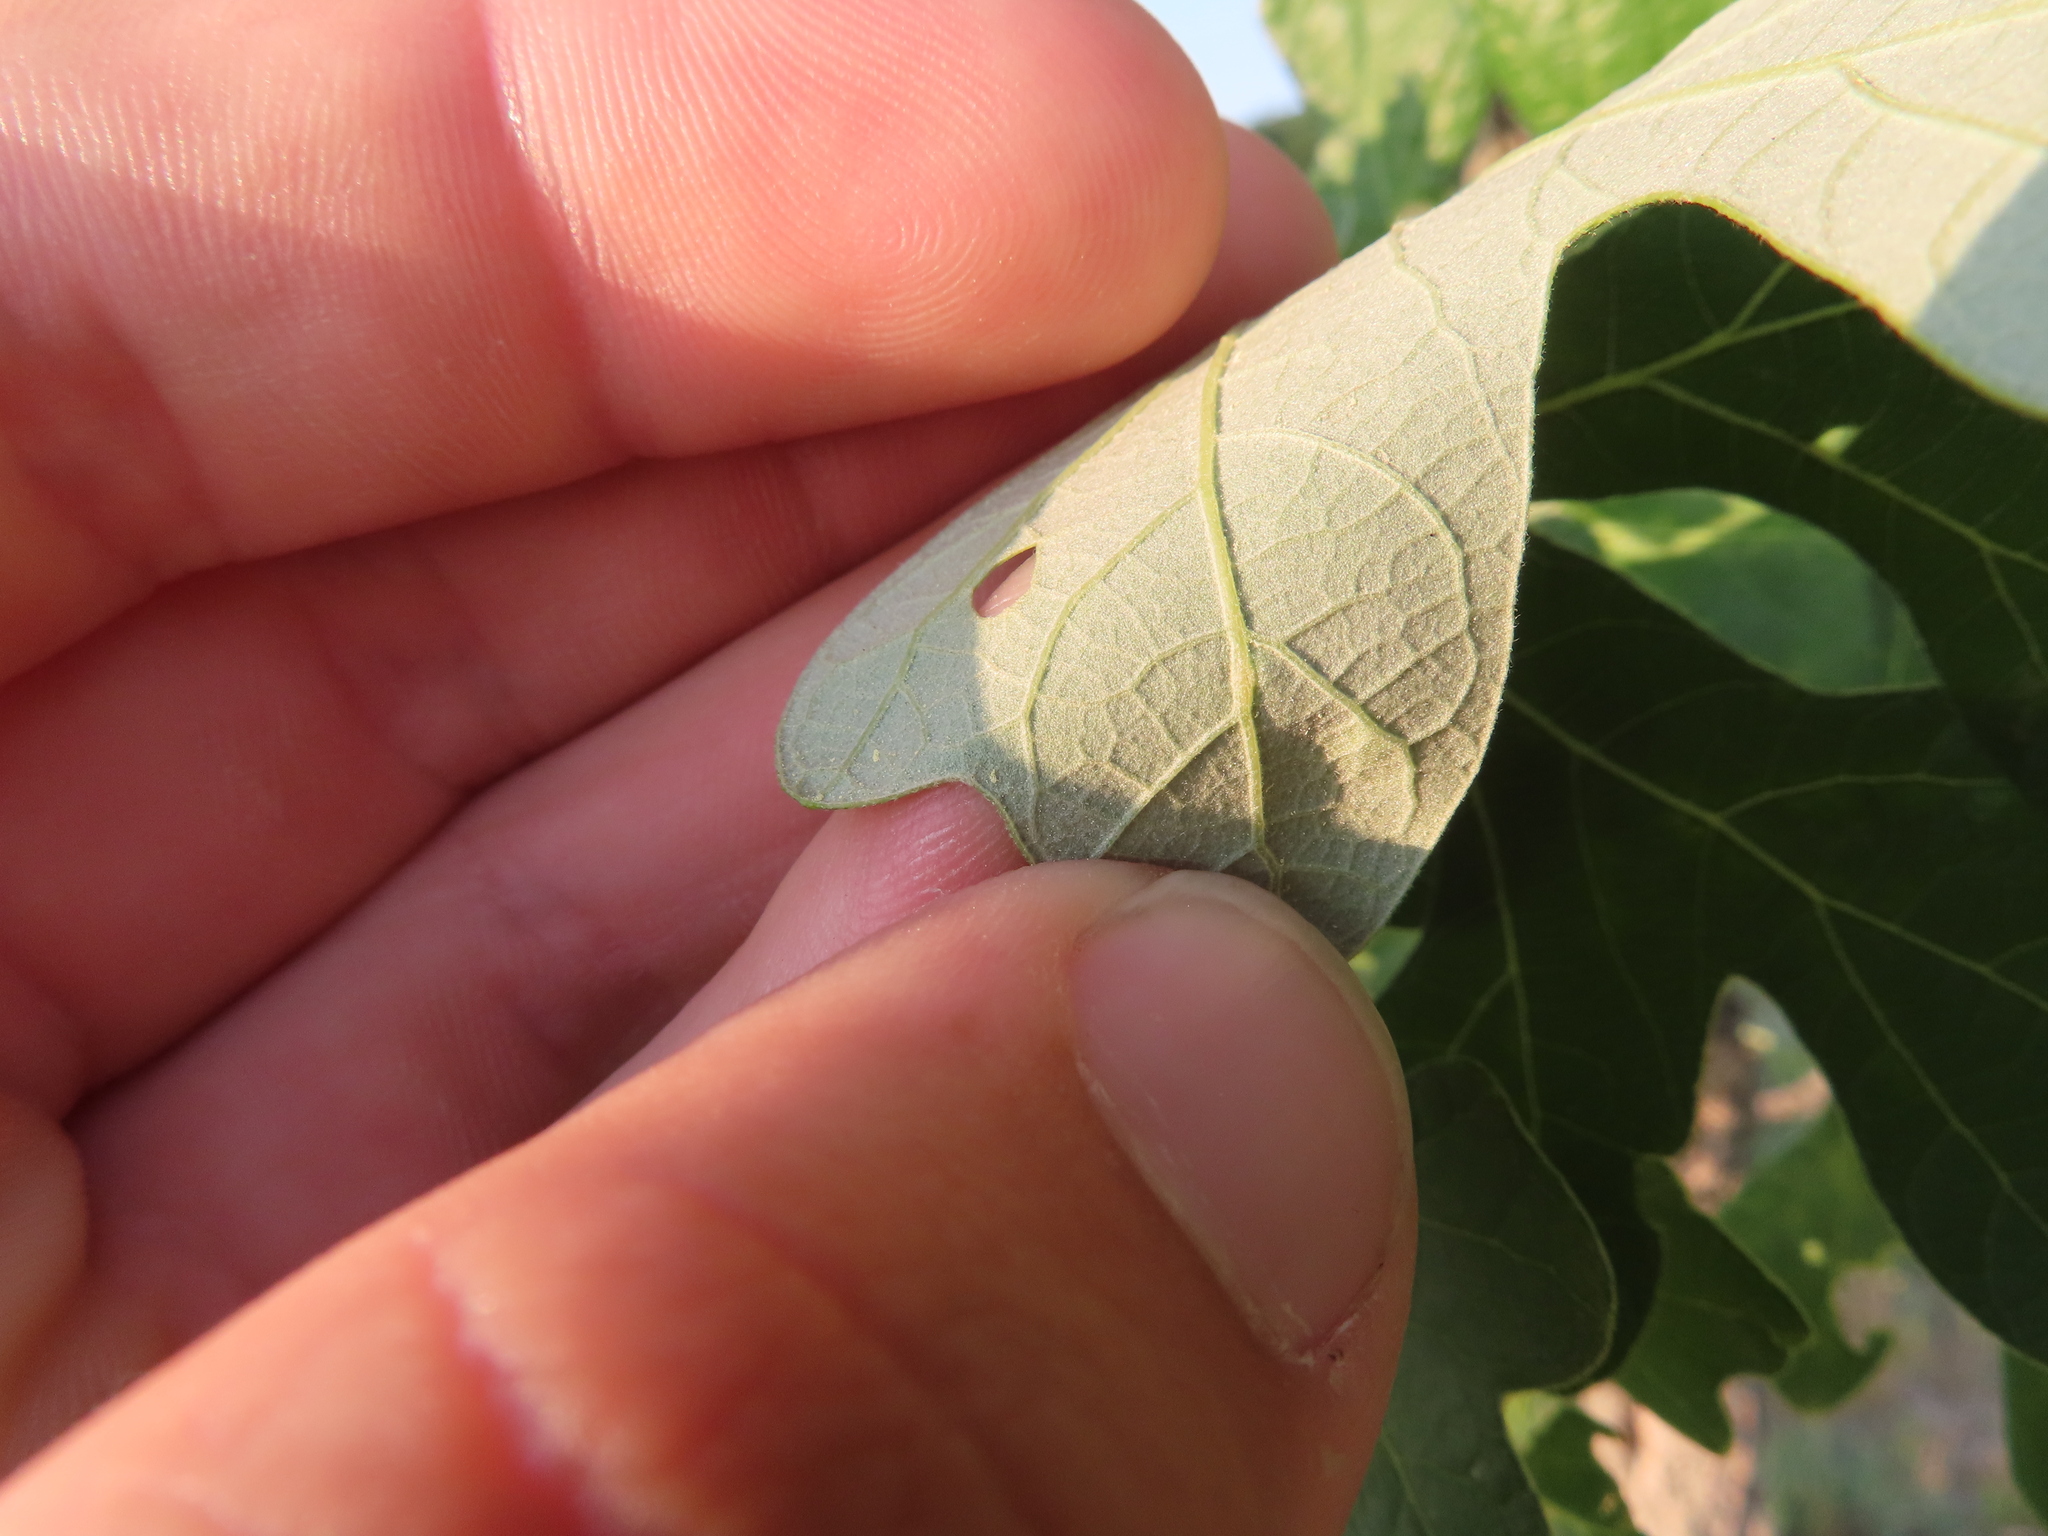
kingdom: Animalia
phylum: Arthropoda
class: Insecta
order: Hymenoptera
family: Cynipidae
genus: Acraspis
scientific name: Acraspis quercushirta
